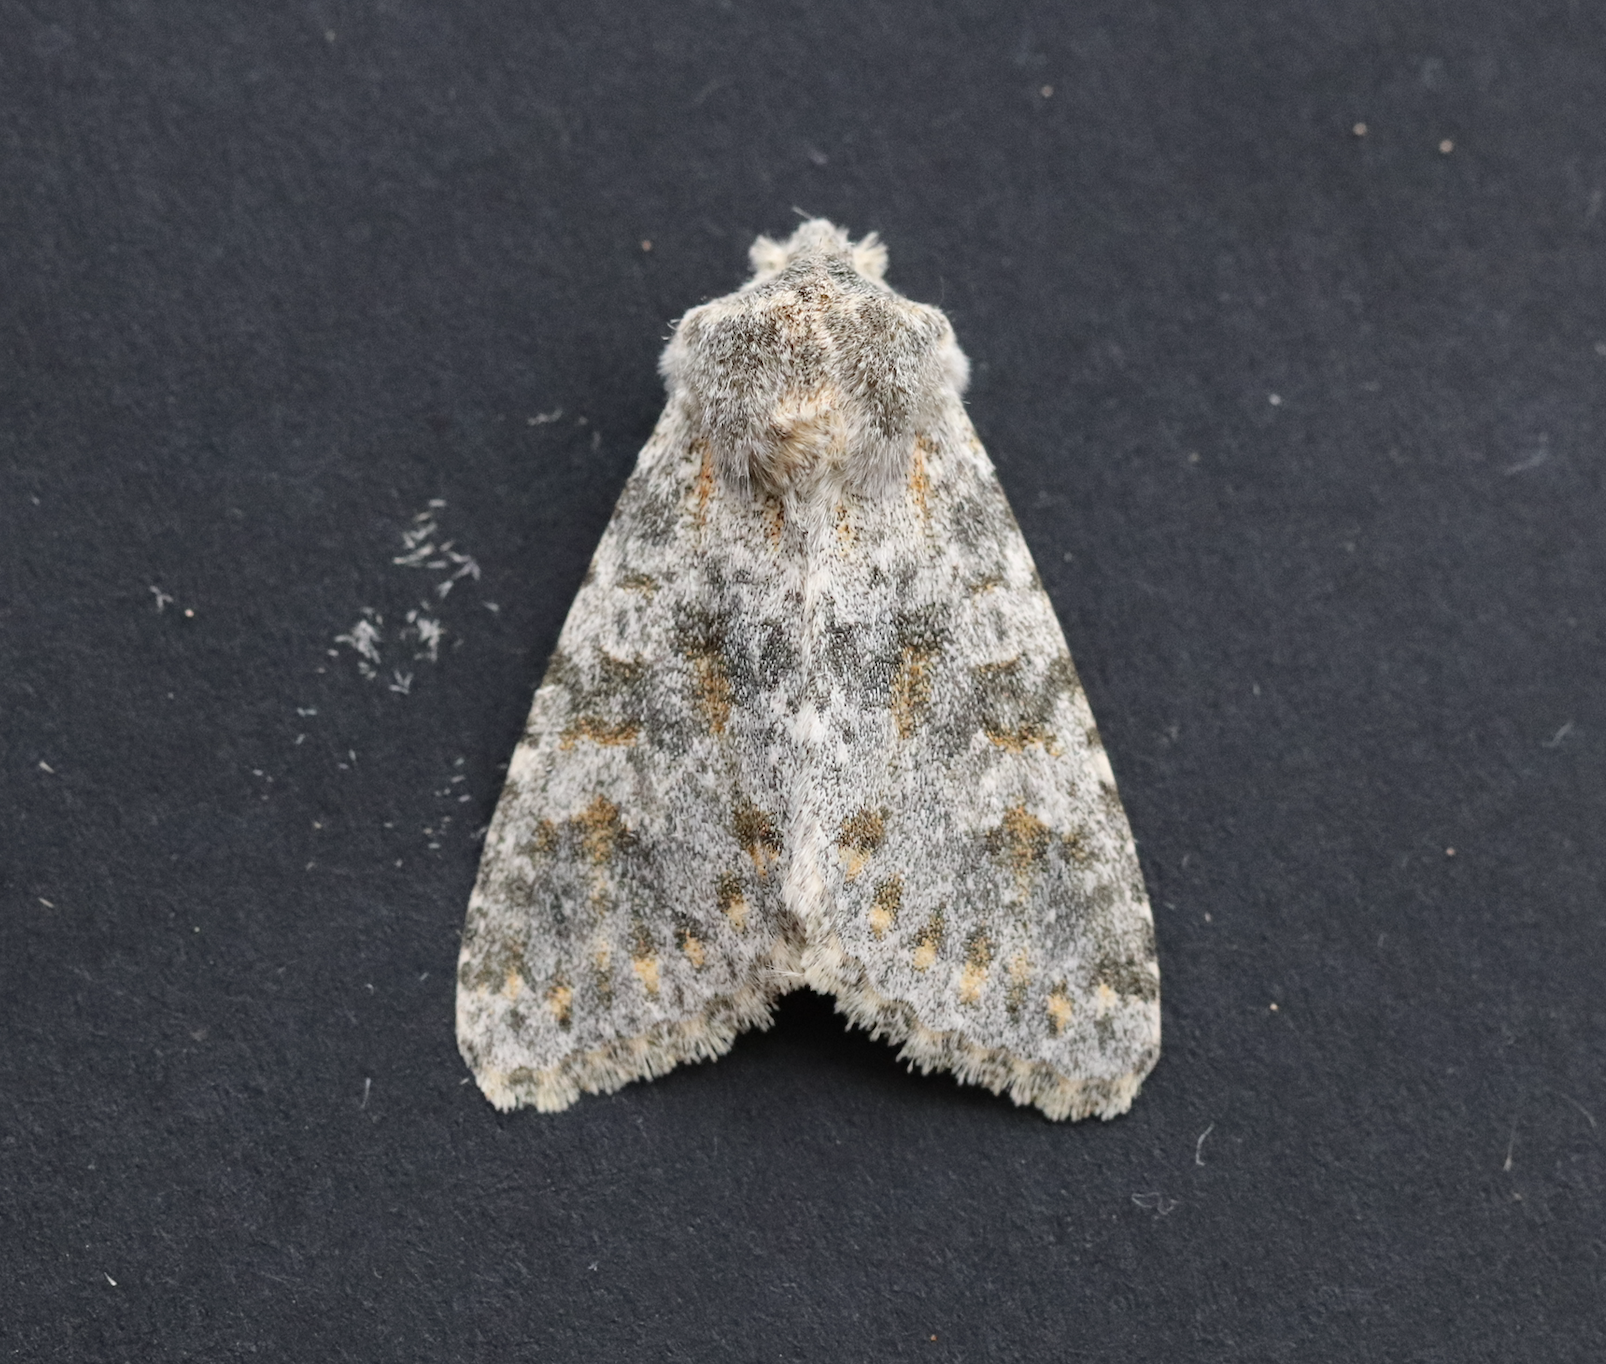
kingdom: Animalia
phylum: Arthropoda
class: Insecta
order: Lepidoptera
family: Noctuidae
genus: Polymixis
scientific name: Polymixis rufocincta
